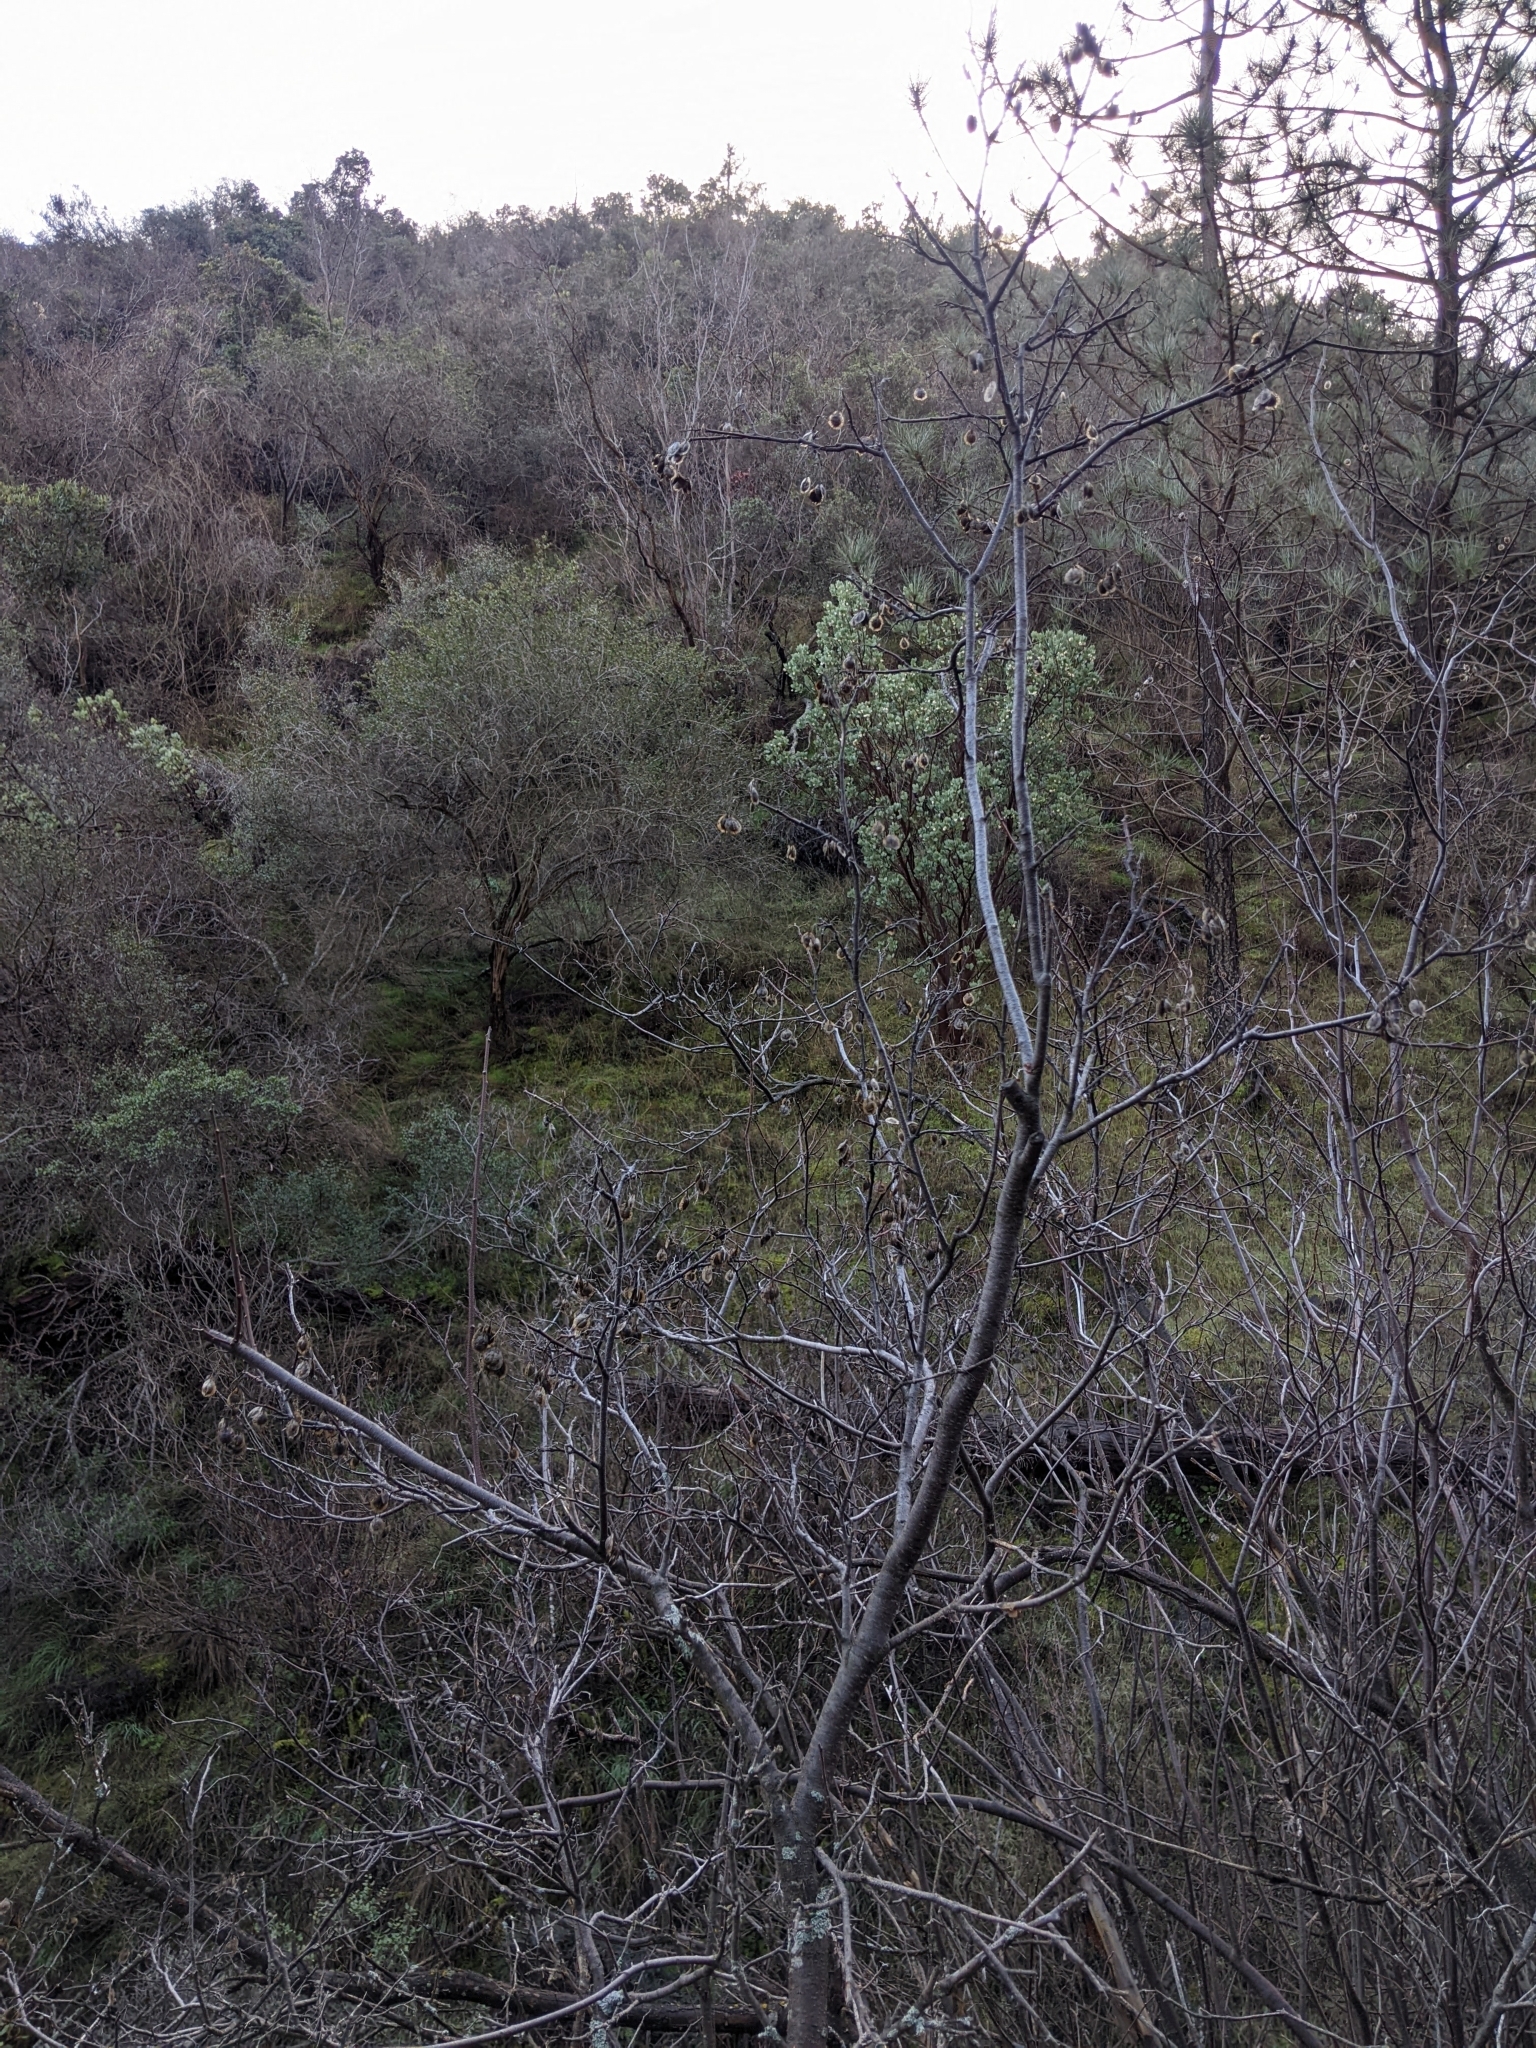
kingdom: Plantae
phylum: Tracheophyta
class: Magnoliopsida
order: Sapindales
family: Rutaceae
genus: Ptelea
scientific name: Ptelea crenulata
